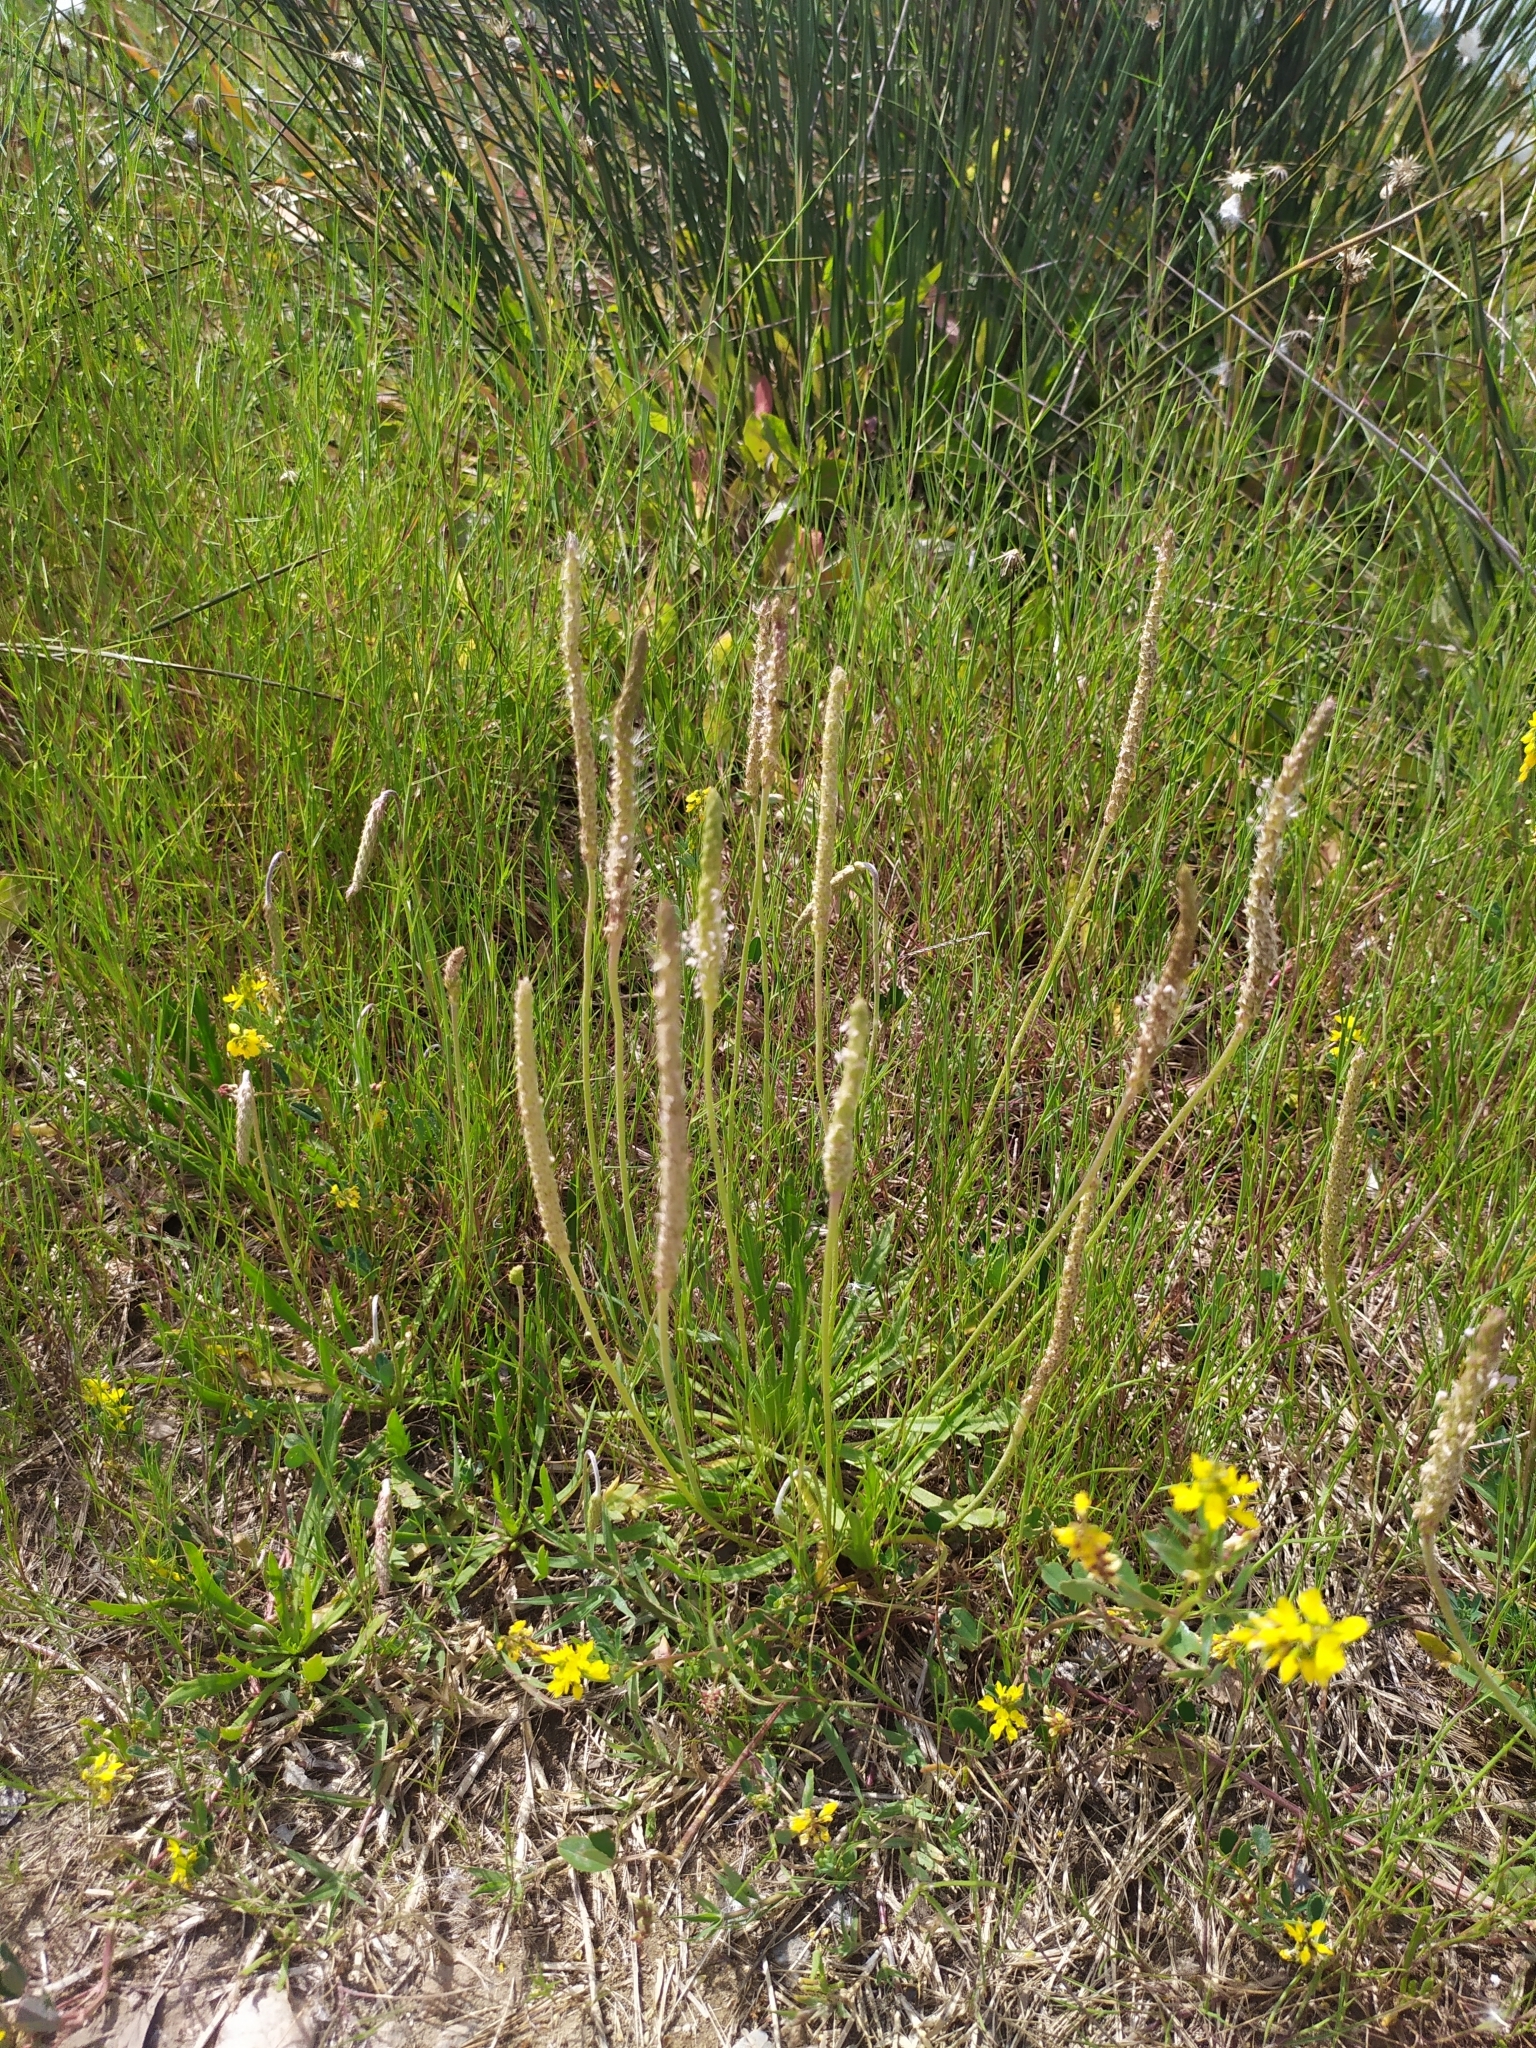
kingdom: Plantae
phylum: Tracheophyta
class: Magnoliopsida
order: Lamiales
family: Plantaginaceae
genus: Plantago
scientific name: Plantago coronopus
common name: Buck's-horn plantain
